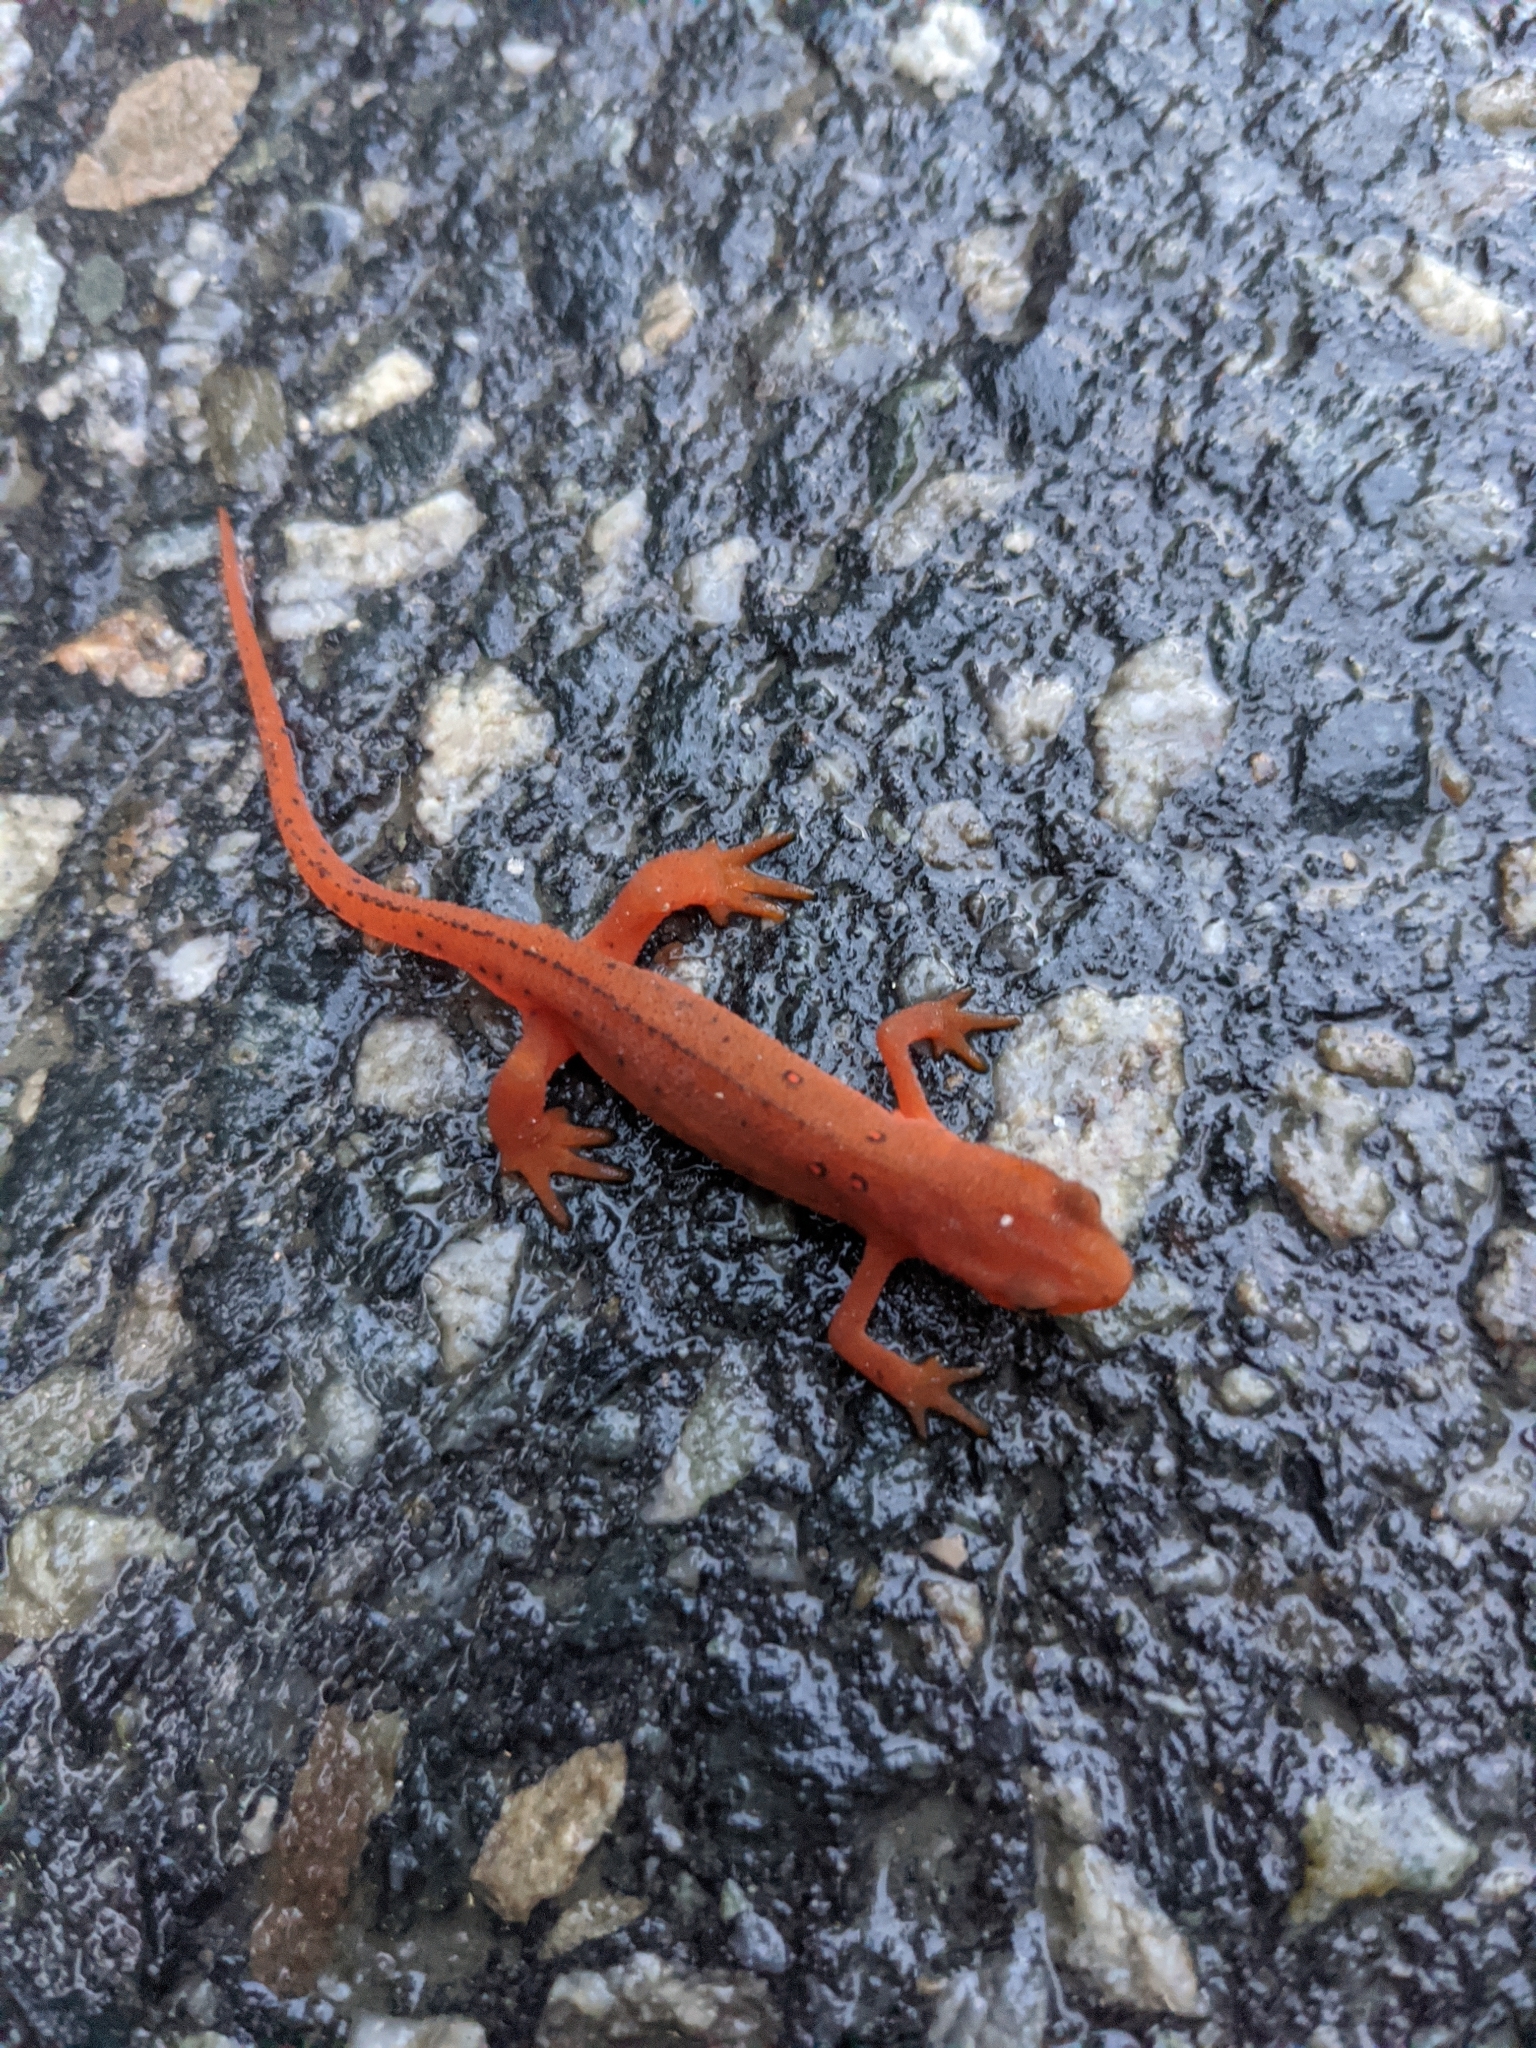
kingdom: Animalia
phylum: Chordata
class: Amphibia
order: Caudata
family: Salamandridae
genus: Notophthalmus
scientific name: Notophthalmus viridescens
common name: Eastern newt
